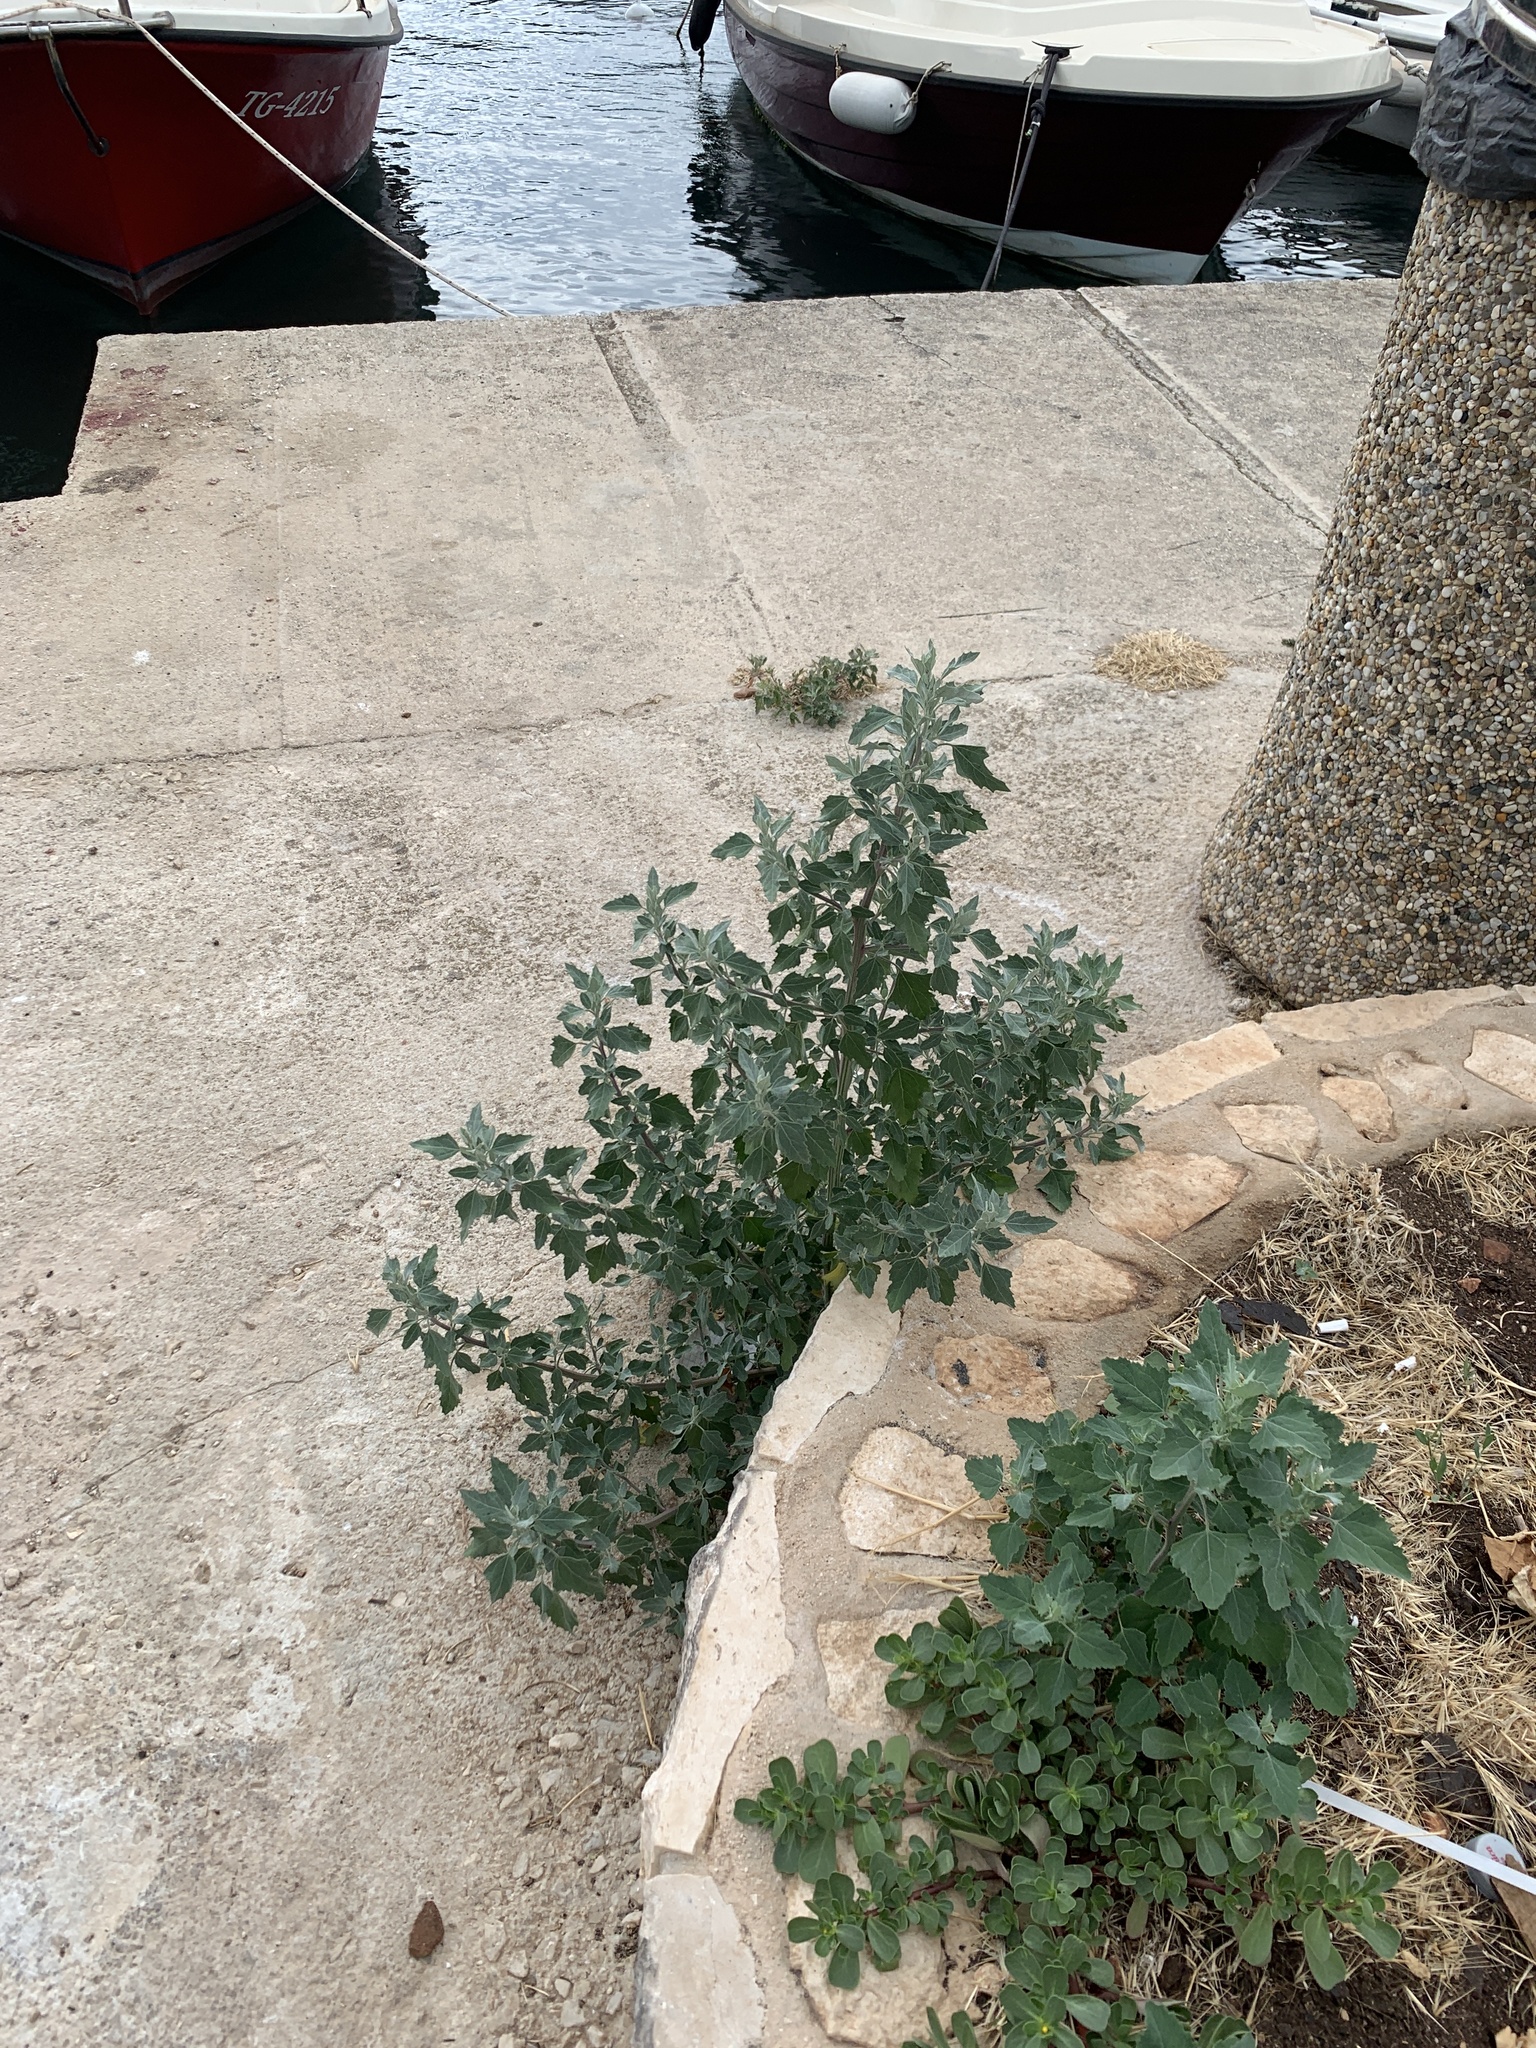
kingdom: Plantae
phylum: Tracheophyta
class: Magnoliopsida
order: Caryophyllales
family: Amaranthaceae
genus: Chenopodium
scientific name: Chenopodium album
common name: Fat-hen
